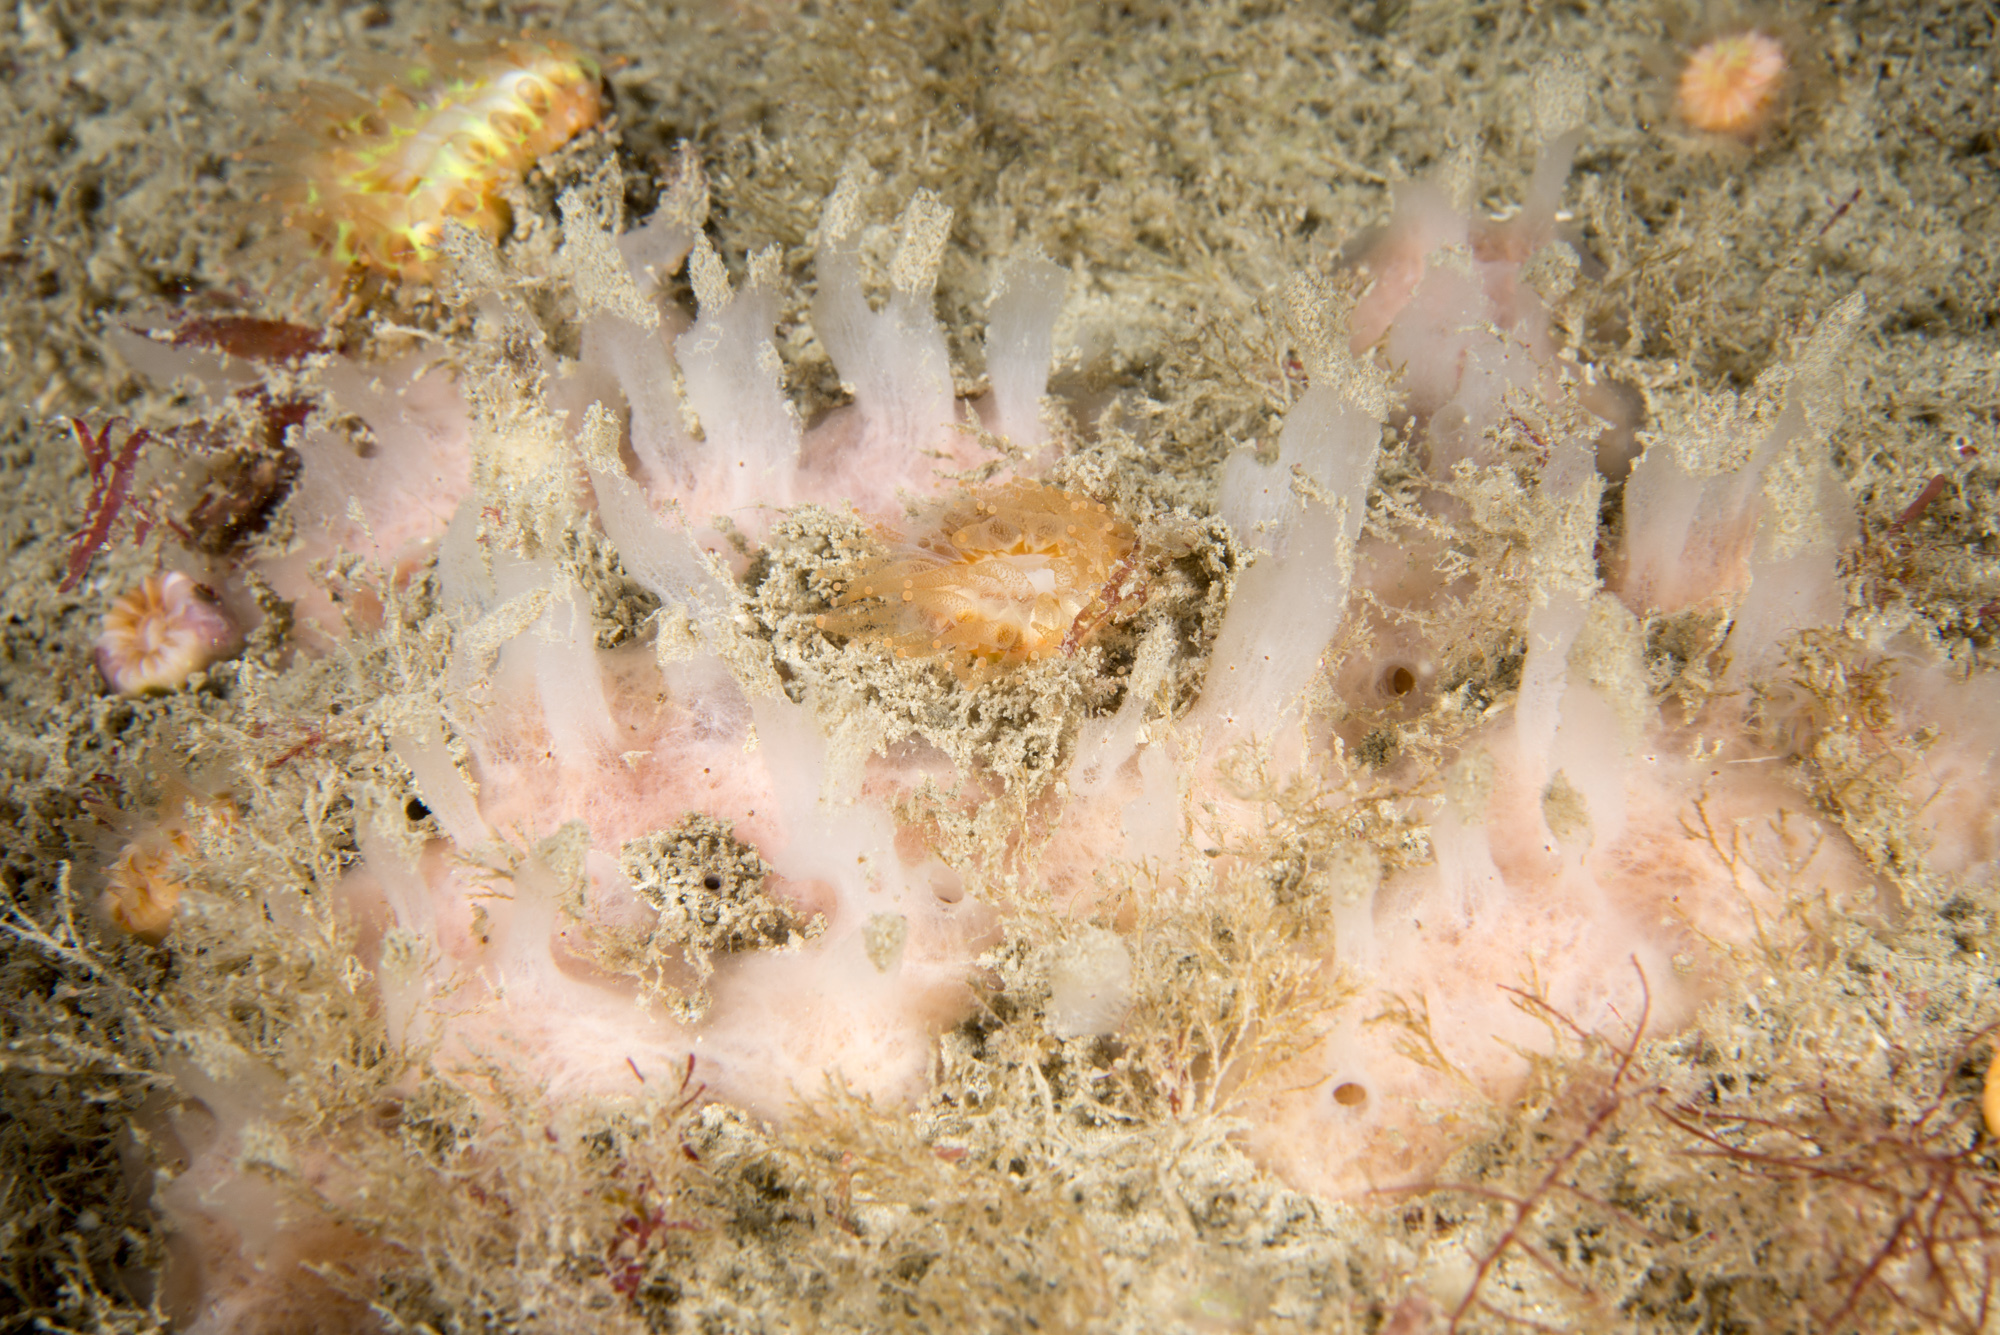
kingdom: Animalia
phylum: Porifera
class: Demospongiae
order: Haplosclerida
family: Chalinidae
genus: Haliclona
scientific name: Haliclona angulata
